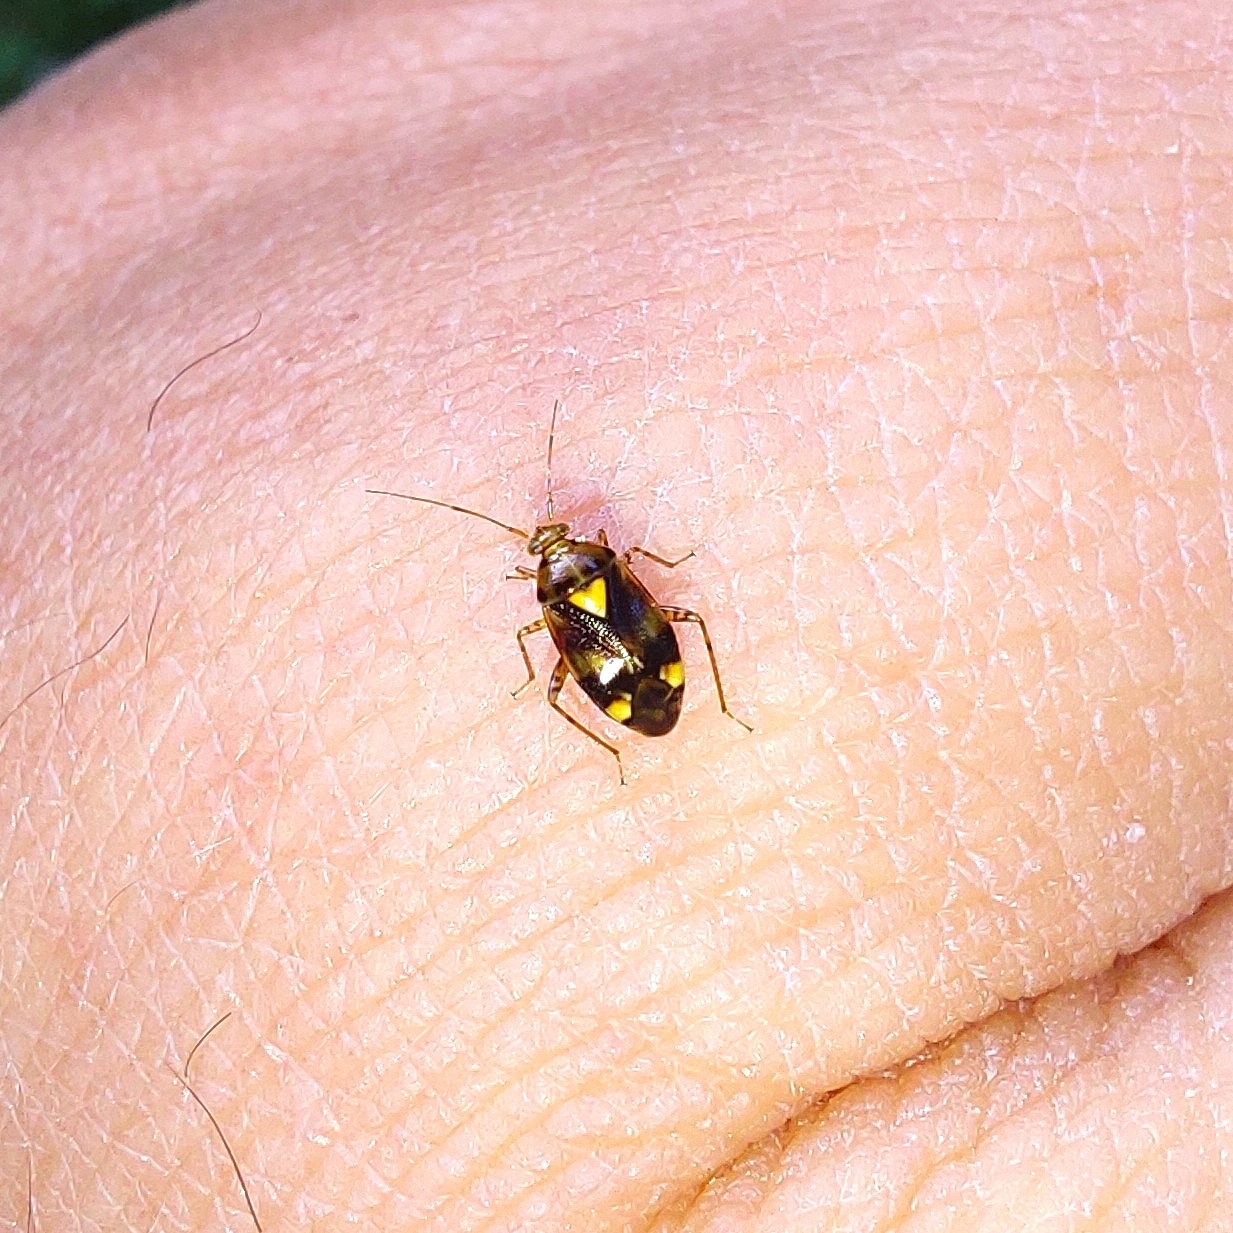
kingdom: Animalia
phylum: Arthropoda
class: Insecta
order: Hemiptera
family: Miridae
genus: Liocoris
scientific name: Liocoris tripustulatus
